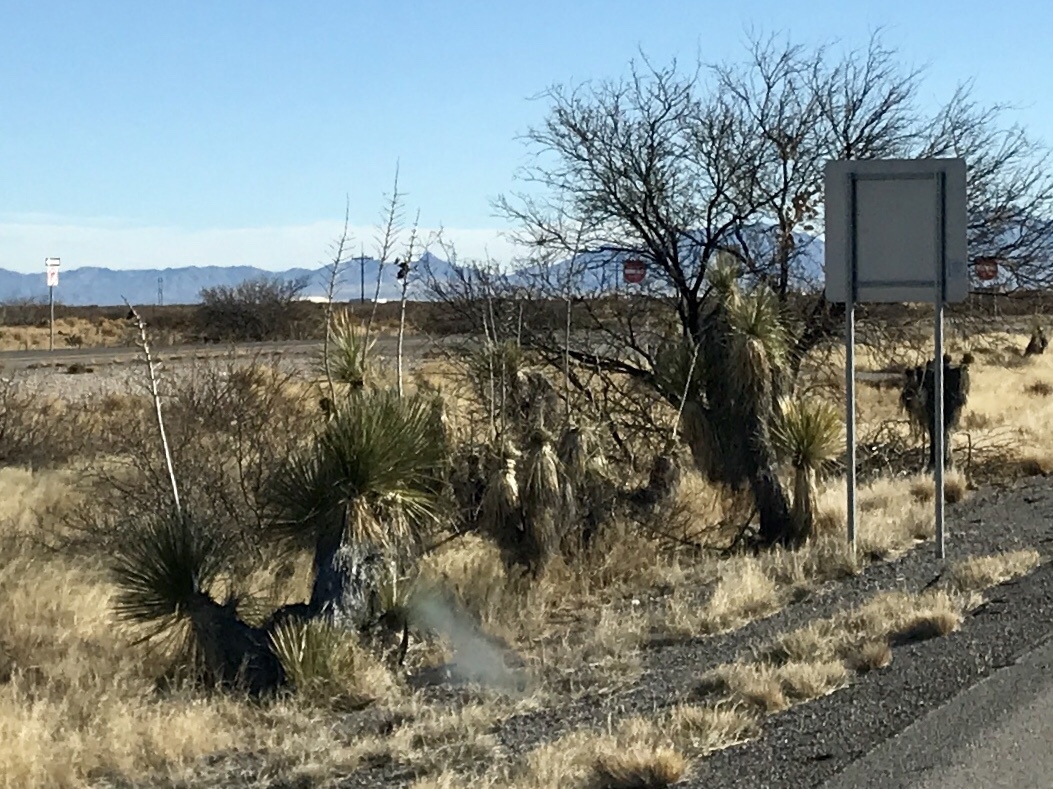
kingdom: Plantae
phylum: Tracheophyta
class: Liliopsida
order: Asparagales
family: Asparagaceae
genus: Yucca
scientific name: Yucca elata
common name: Palmella
